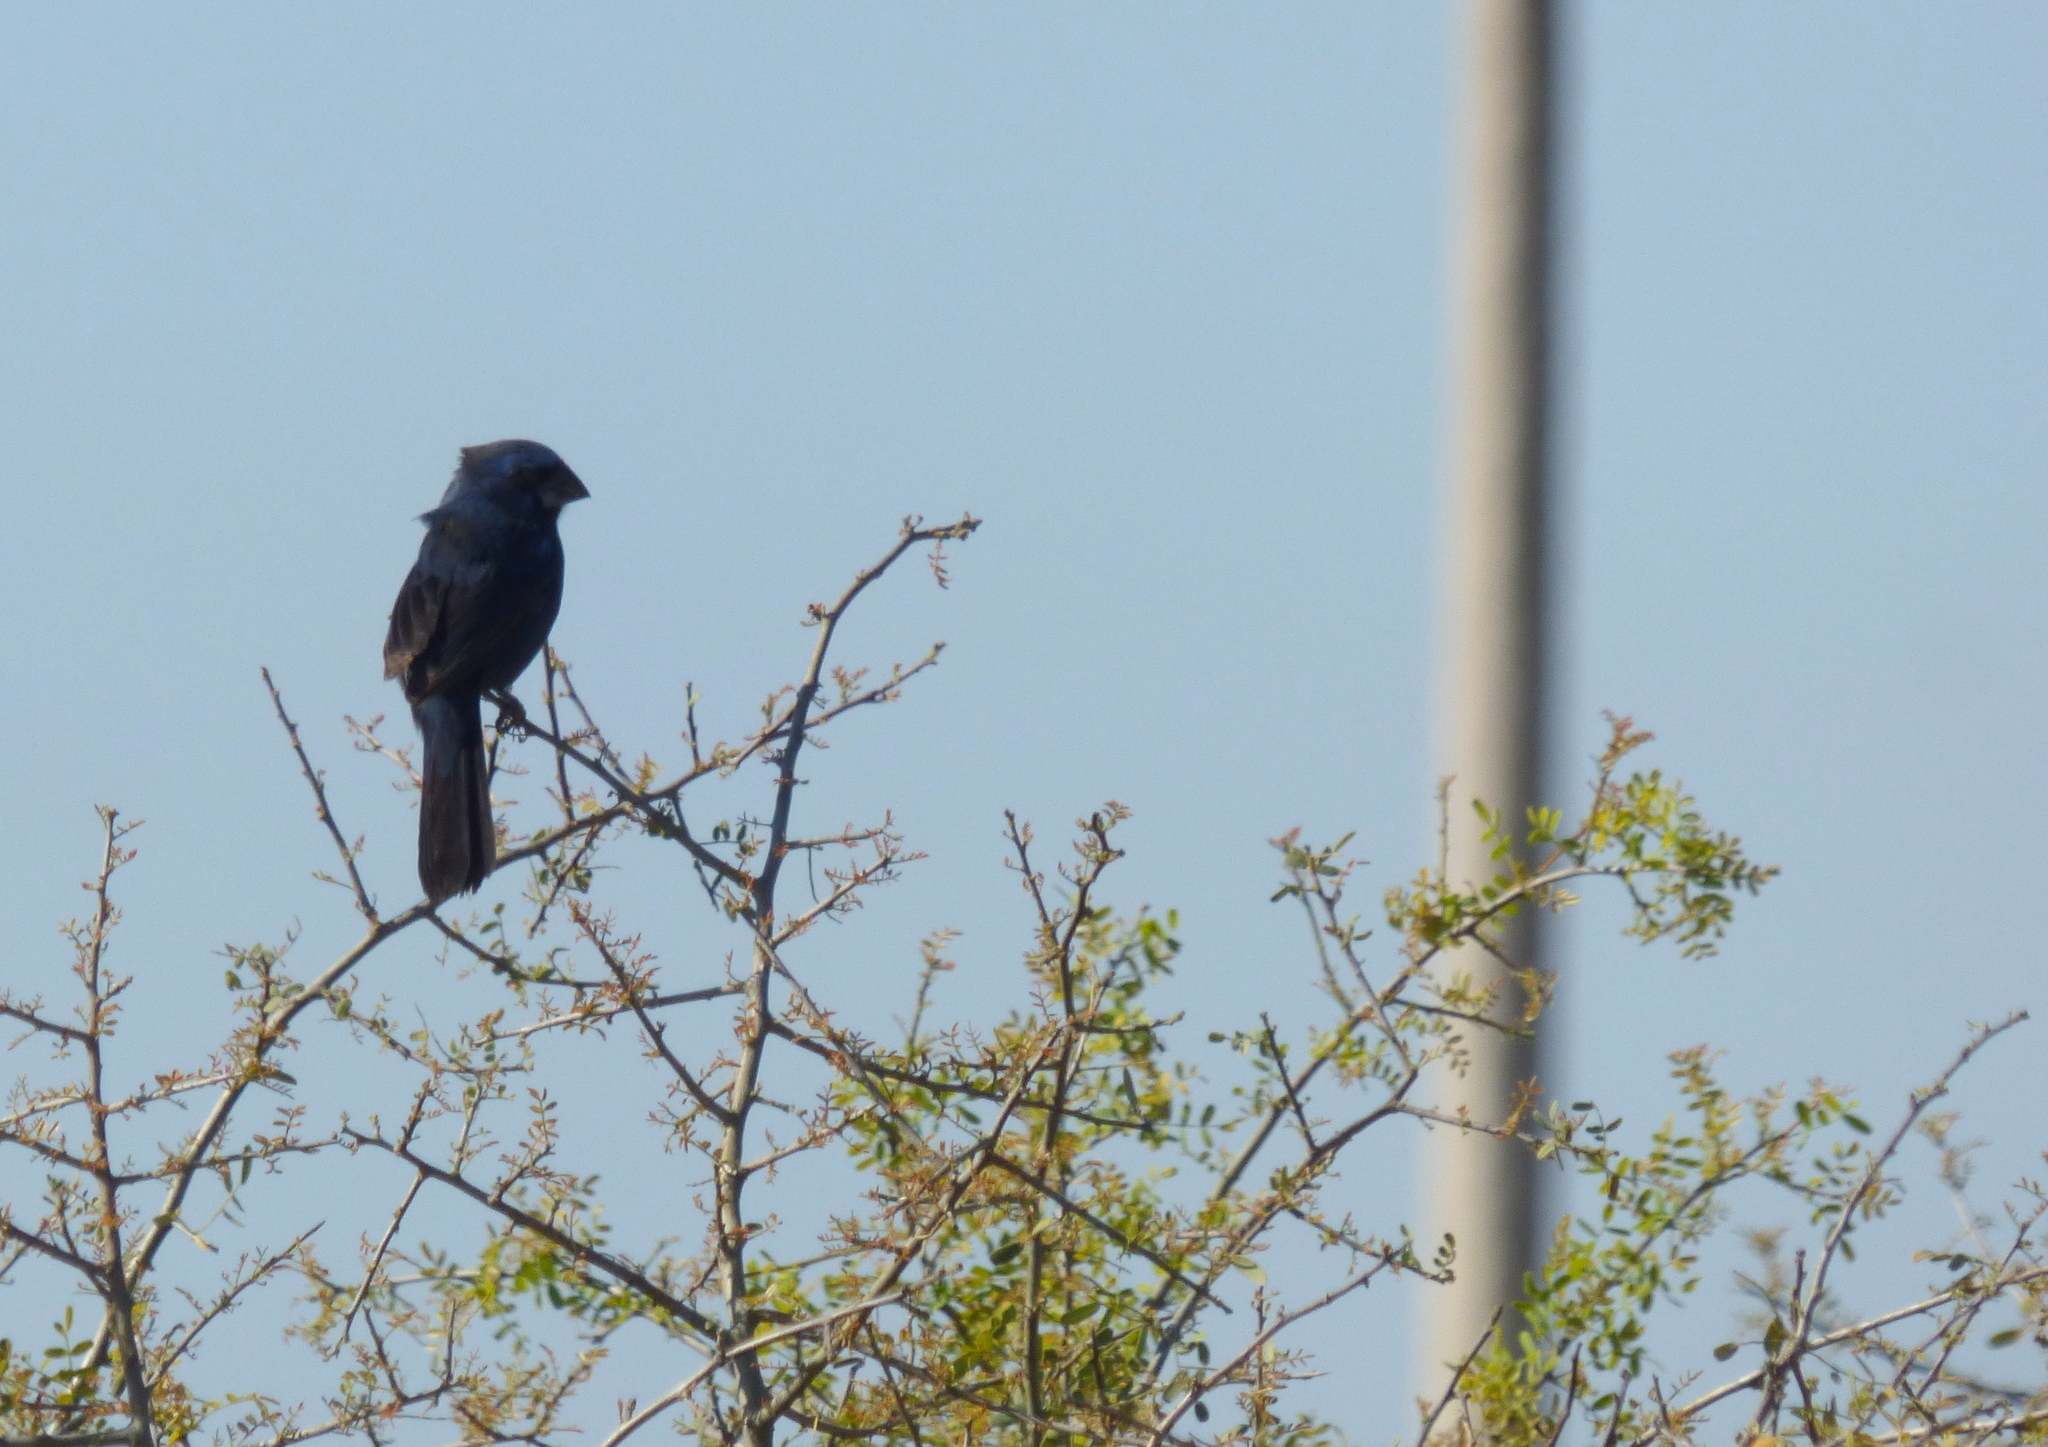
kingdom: Animalia
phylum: Chordata
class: Aves
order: Passeriformes
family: Cardinalidae
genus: Cyanoloxia
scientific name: Cyanoloxia brissonii
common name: Ultramarine grosbeak
